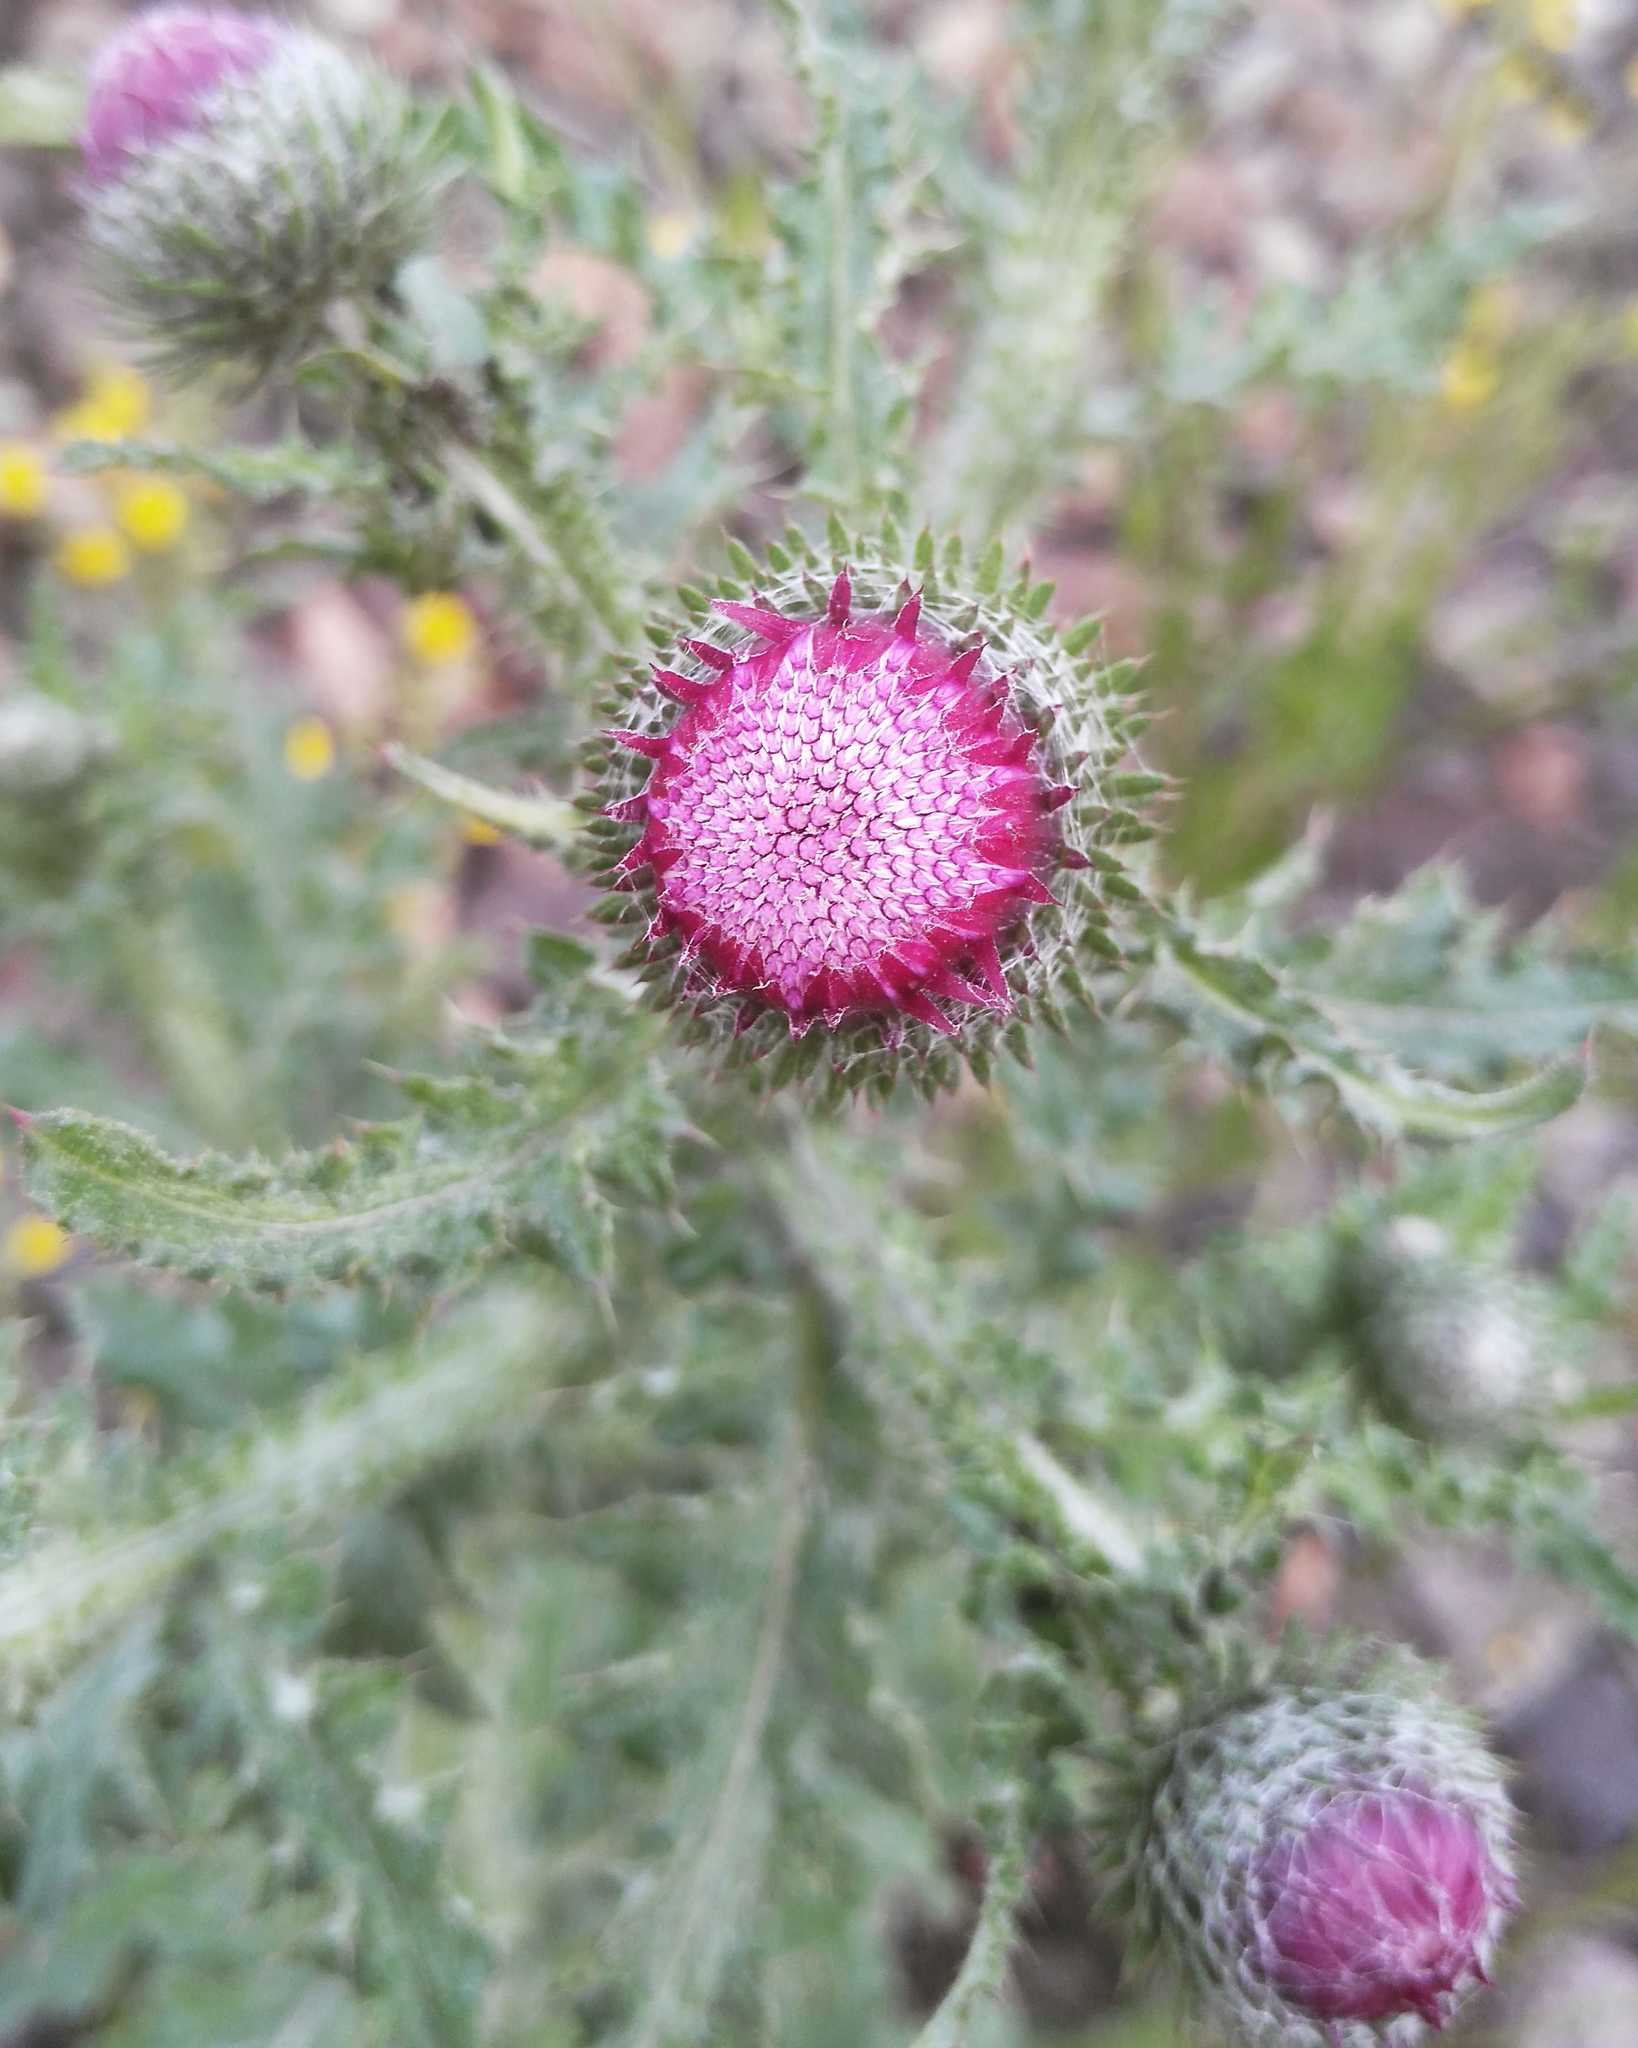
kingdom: Plantae
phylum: Tracheophyta
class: Magnoliopsida
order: Asterales
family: Asteraceae
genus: Carduus
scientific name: Carduus crispus
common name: Welted thistle
